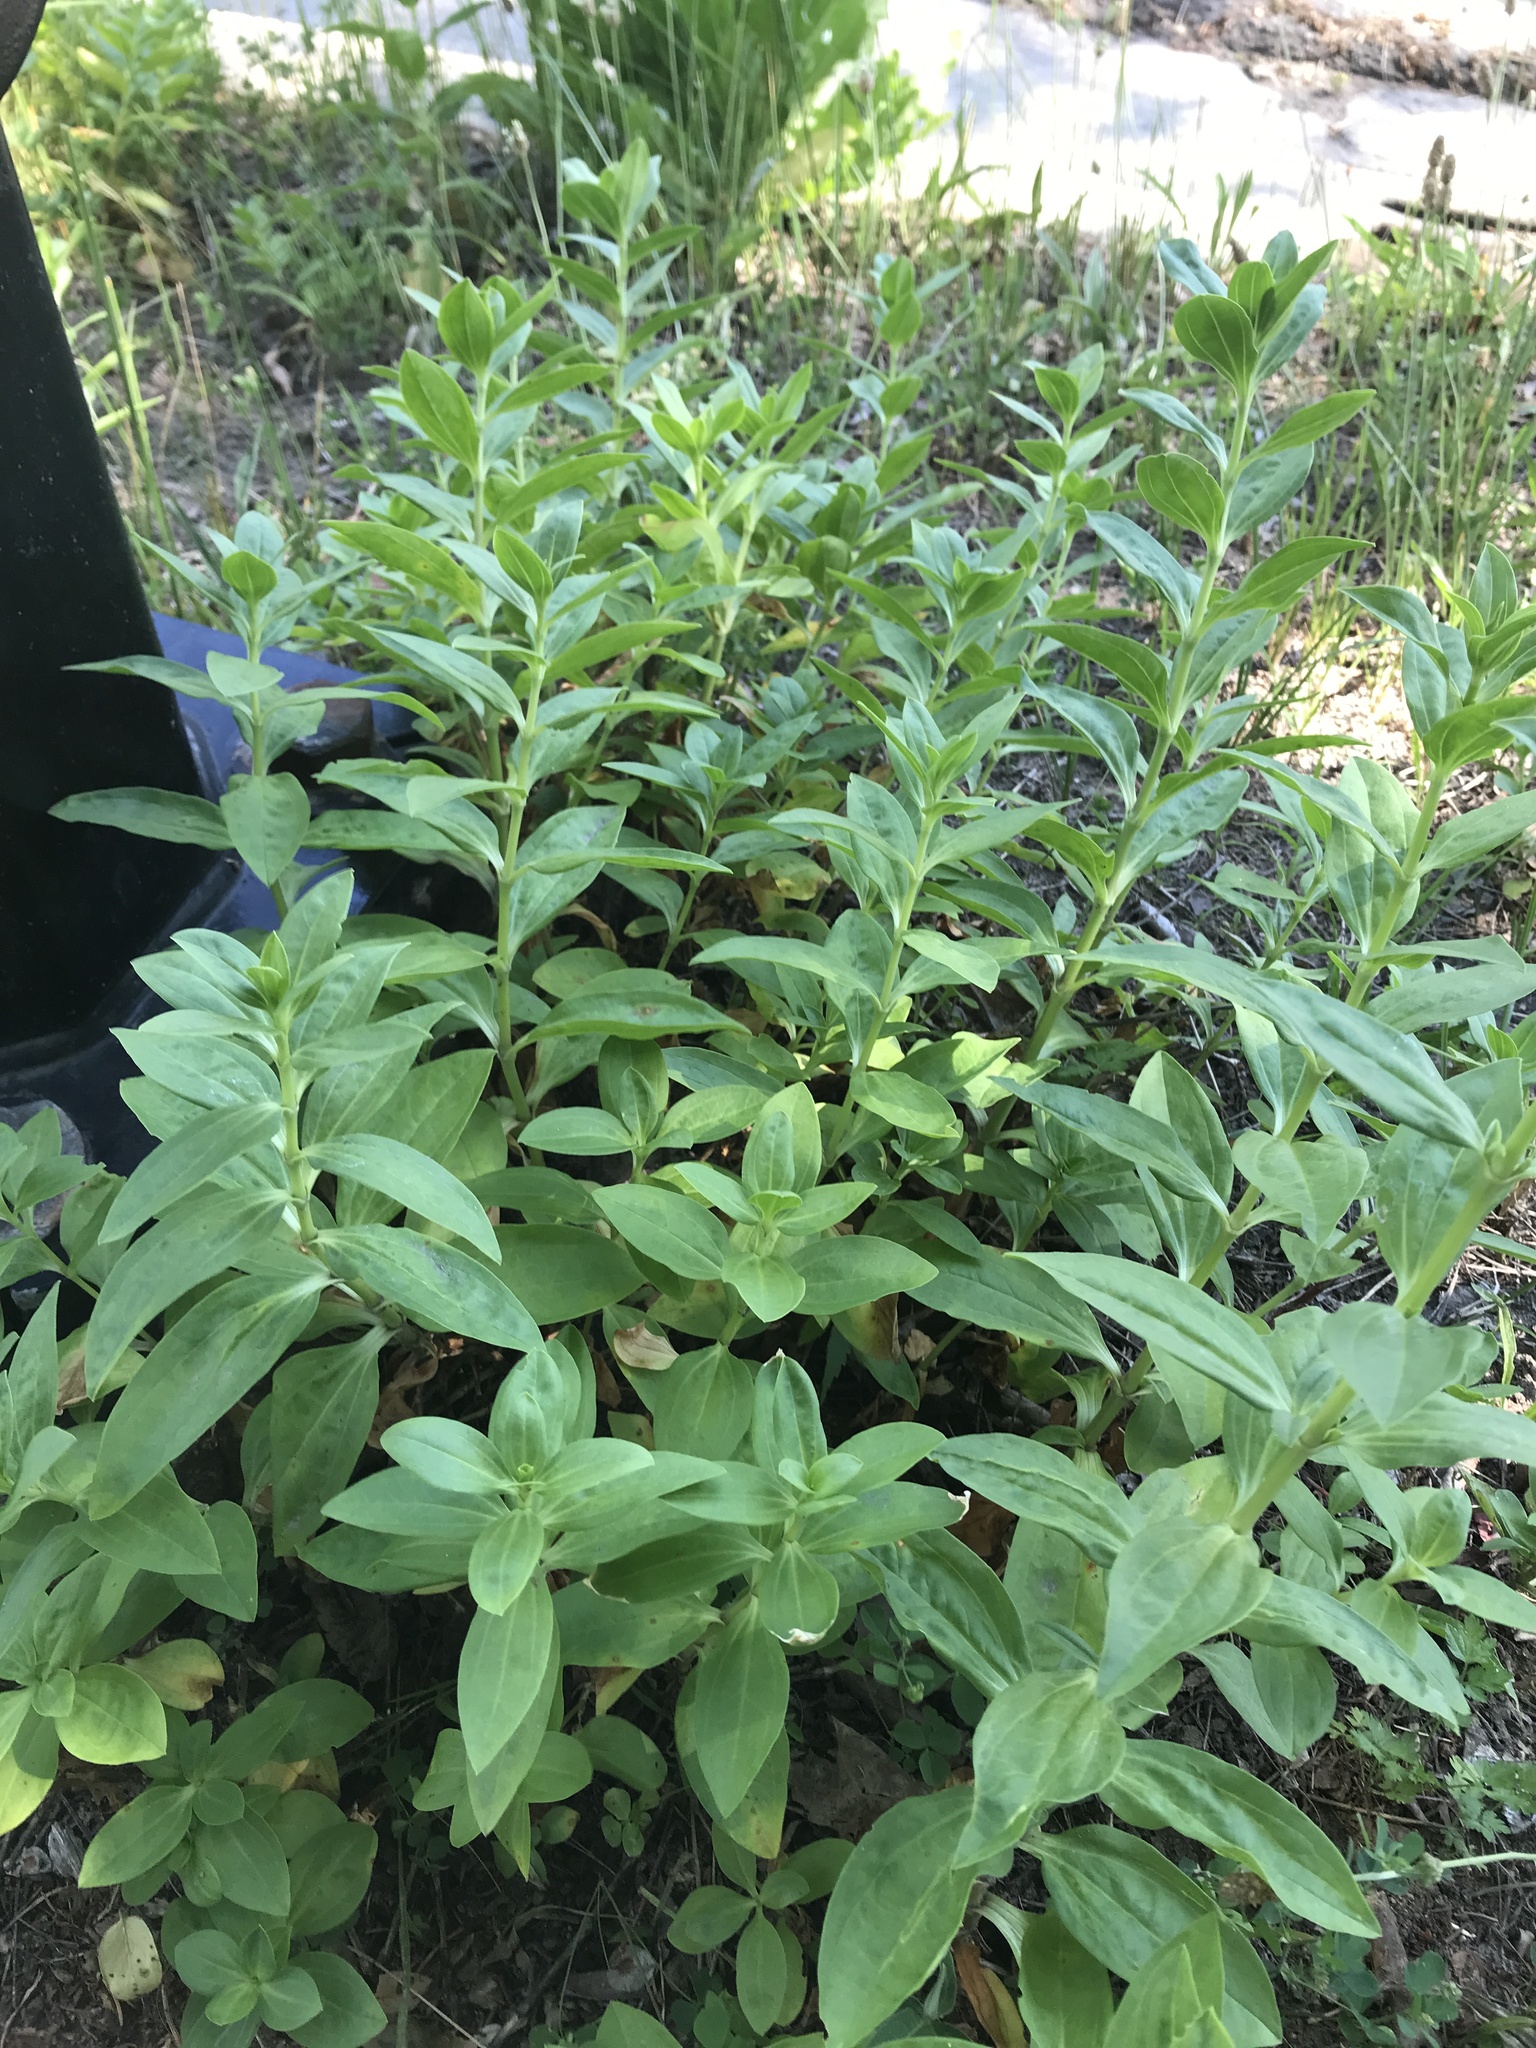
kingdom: Plantae
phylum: Tracheophyta
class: Magnoliopsida
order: Caryophyllales
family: Caryophyllaceae
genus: Saponaria
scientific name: Saponaria officinalis
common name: Soapwort
